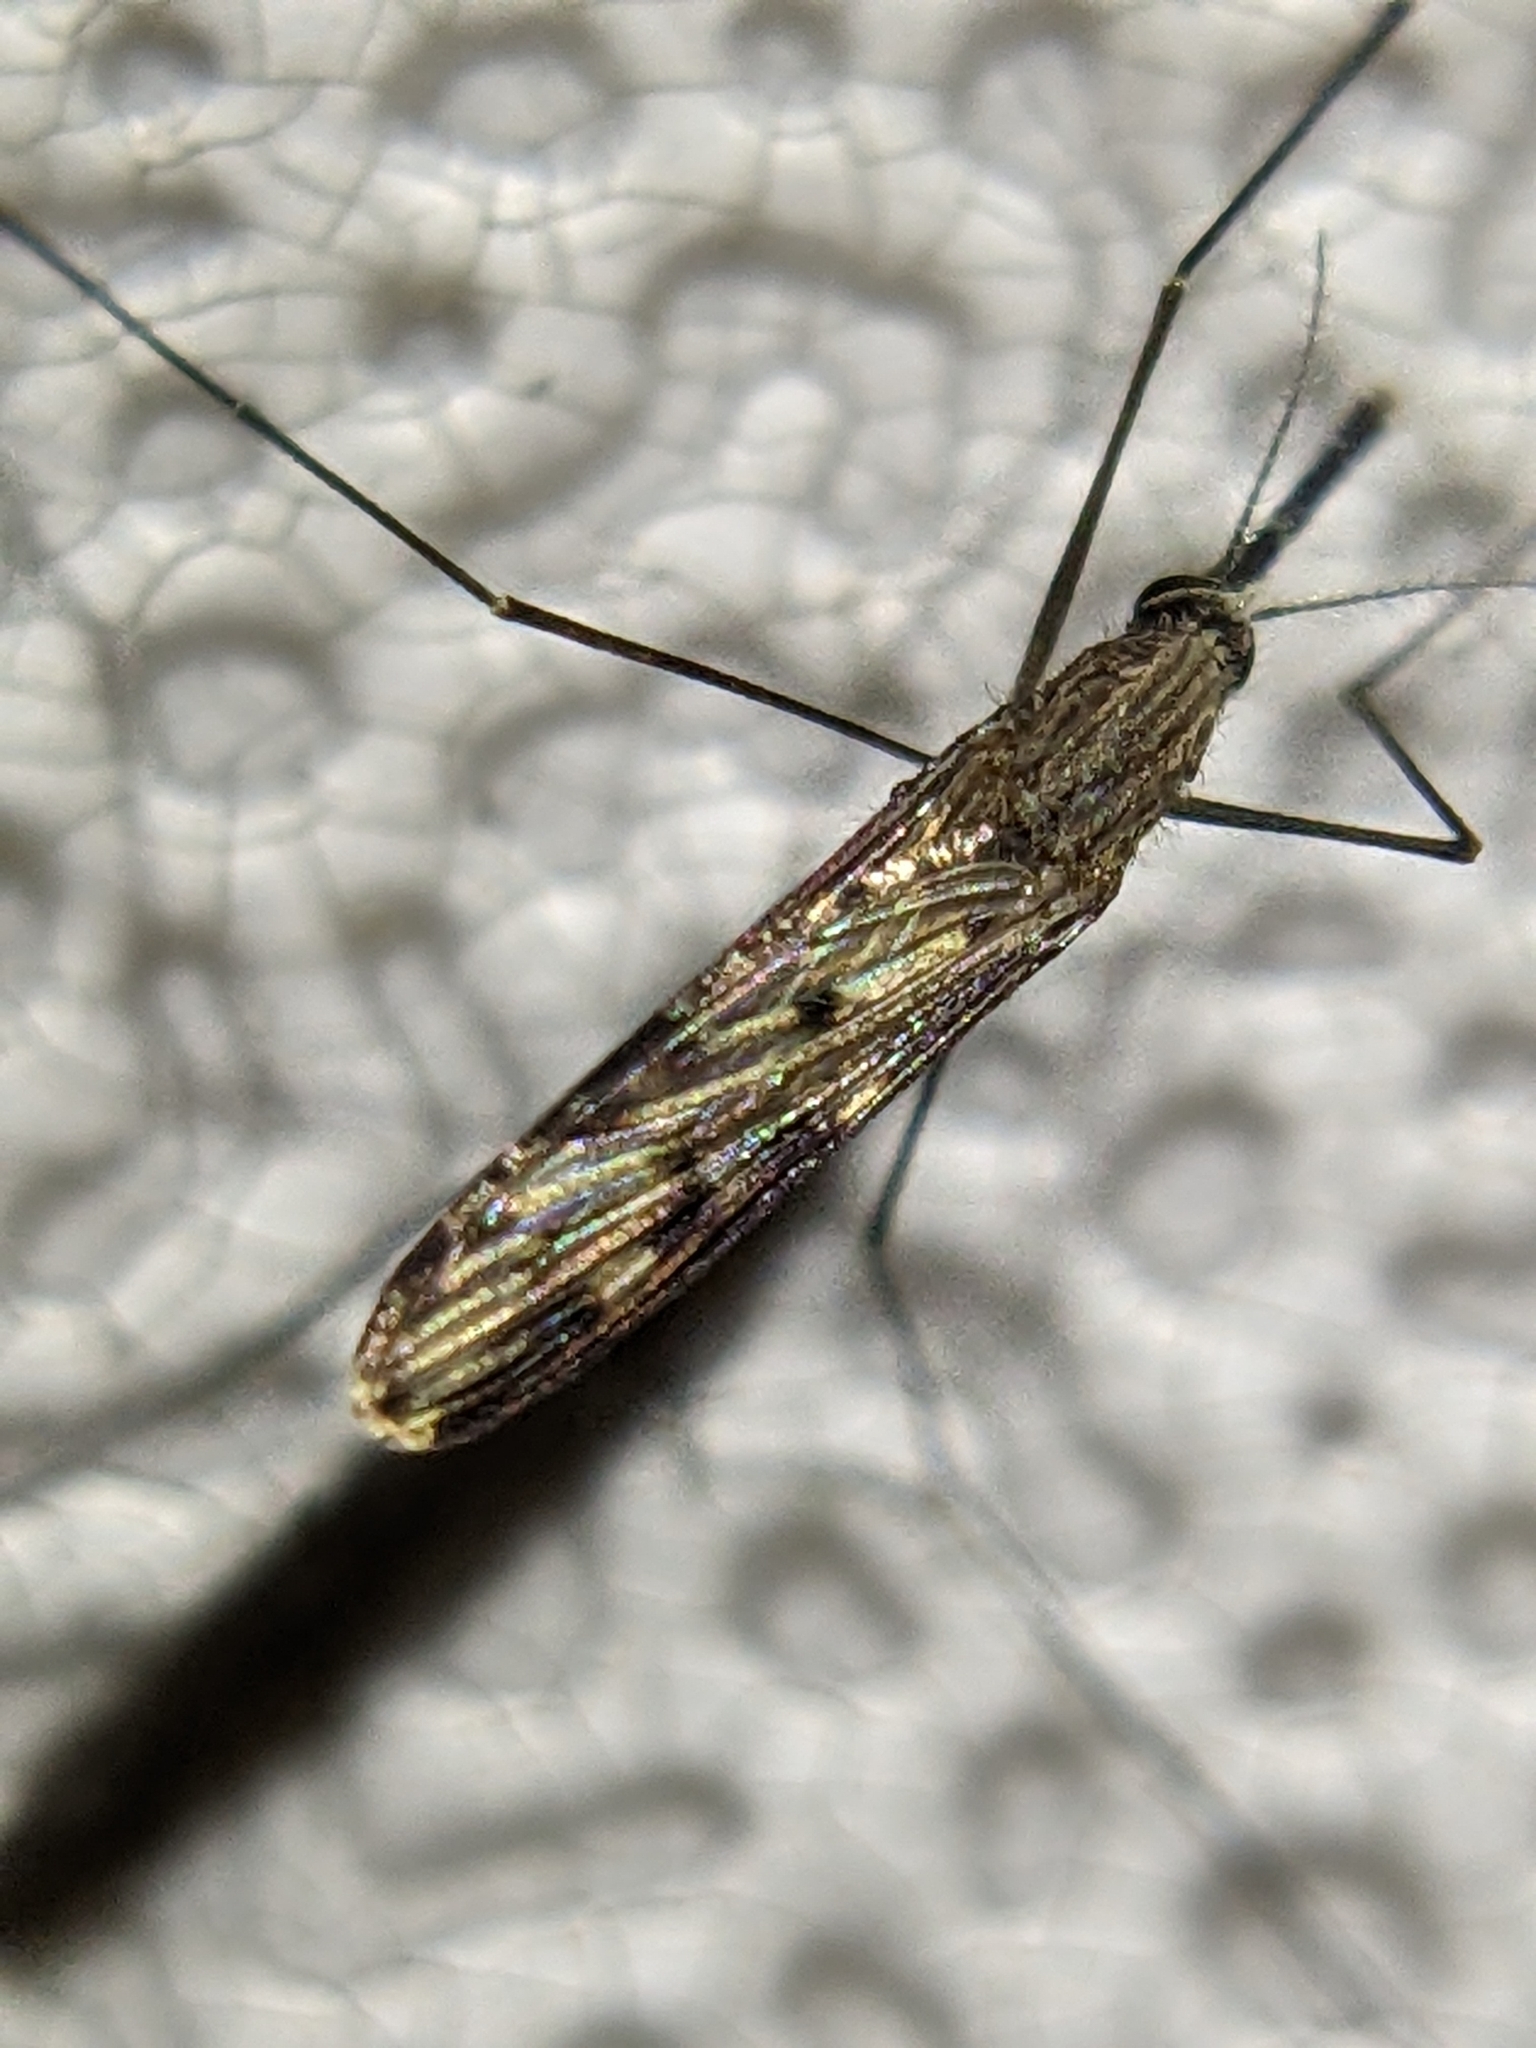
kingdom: Animalia
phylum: Arthropoda
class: Insecta
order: Diptera
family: Culicidae
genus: Anopheles
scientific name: Anopheles
